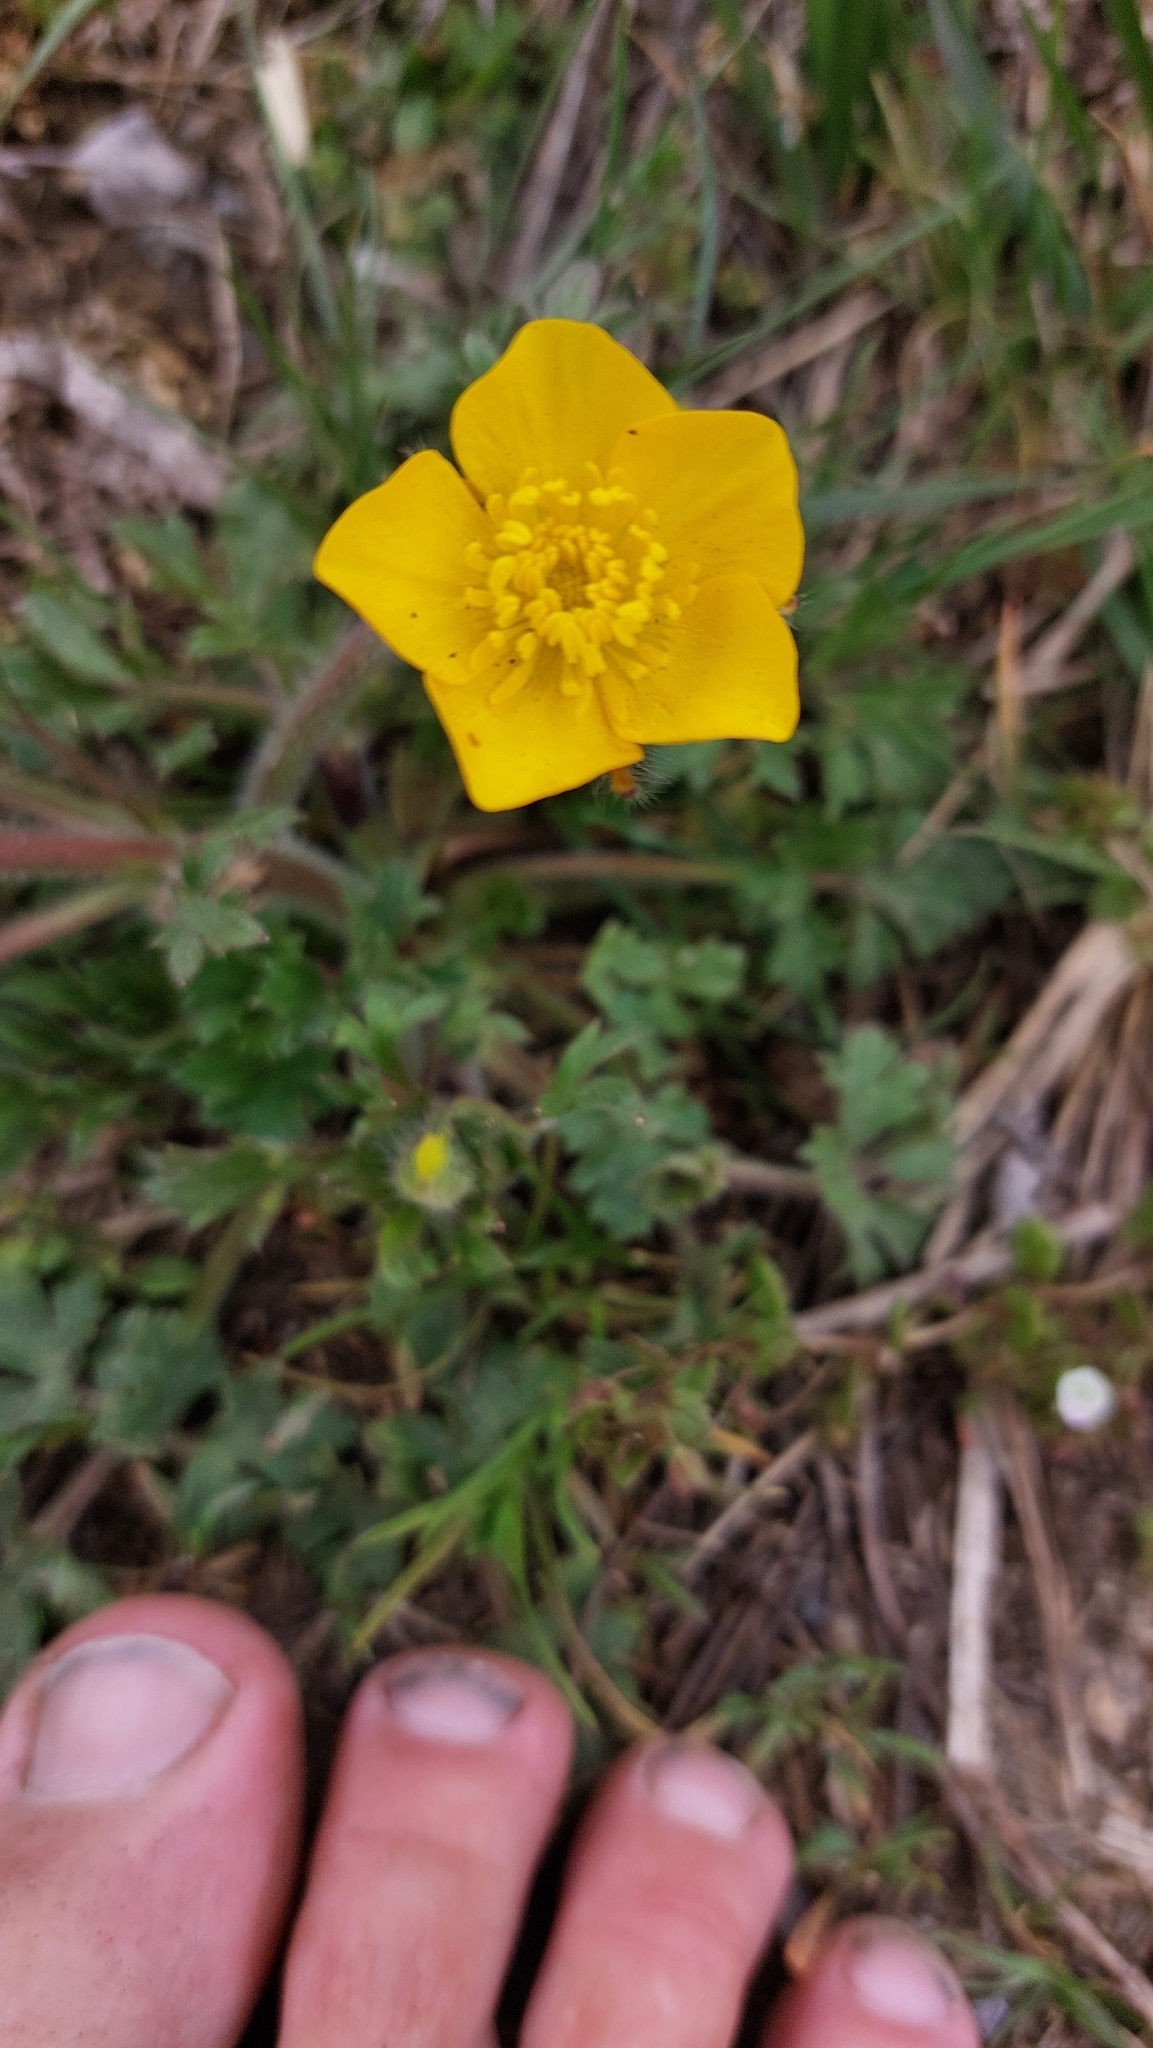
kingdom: Plantae
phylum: Tracheophyta
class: Magnoliopsida
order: Ranunculales
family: Ranunculaceae
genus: Ranunculus
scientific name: Ranunculus bulbosus
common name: Bulbous buttercup
